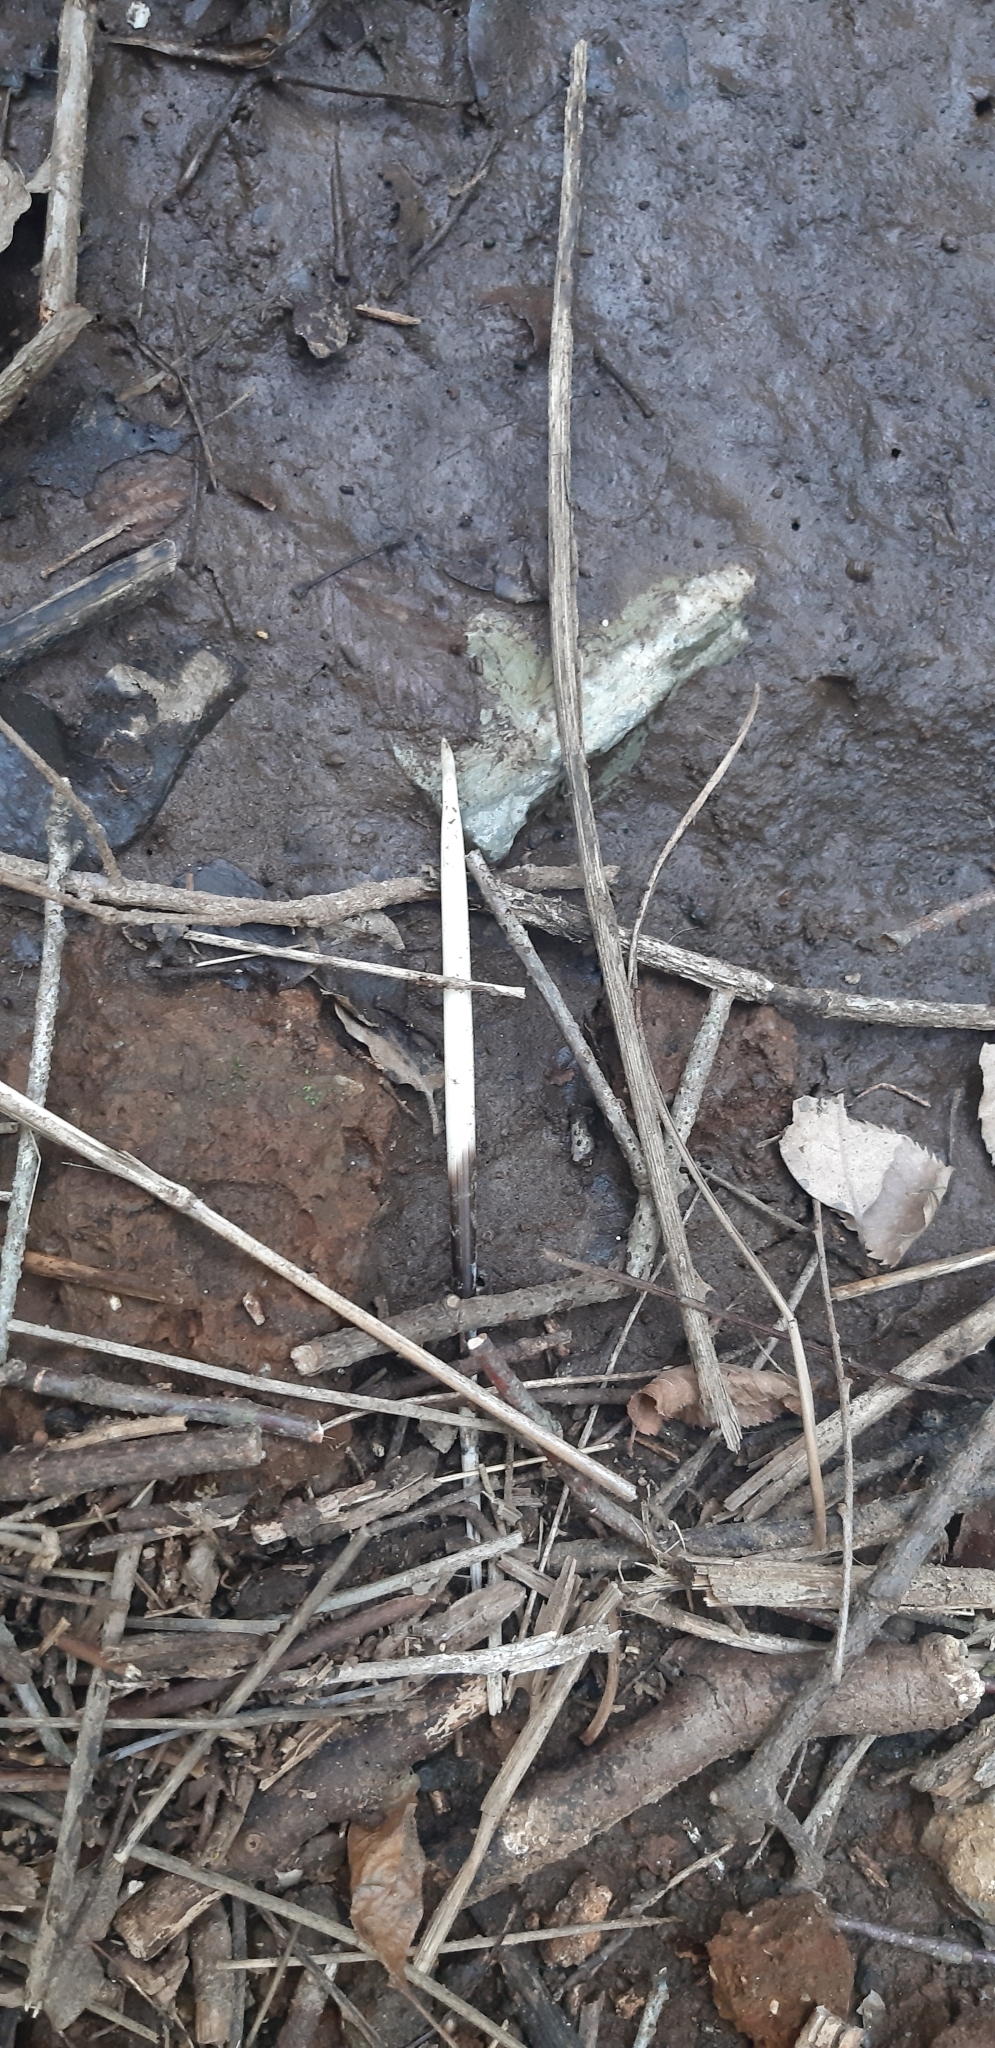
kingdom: Animalia
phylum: Chordata
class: Mammalia
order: Rodentia
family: Hystricidae
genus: Hystrix
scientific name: Hystrix cristata
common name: Crested porcupine
